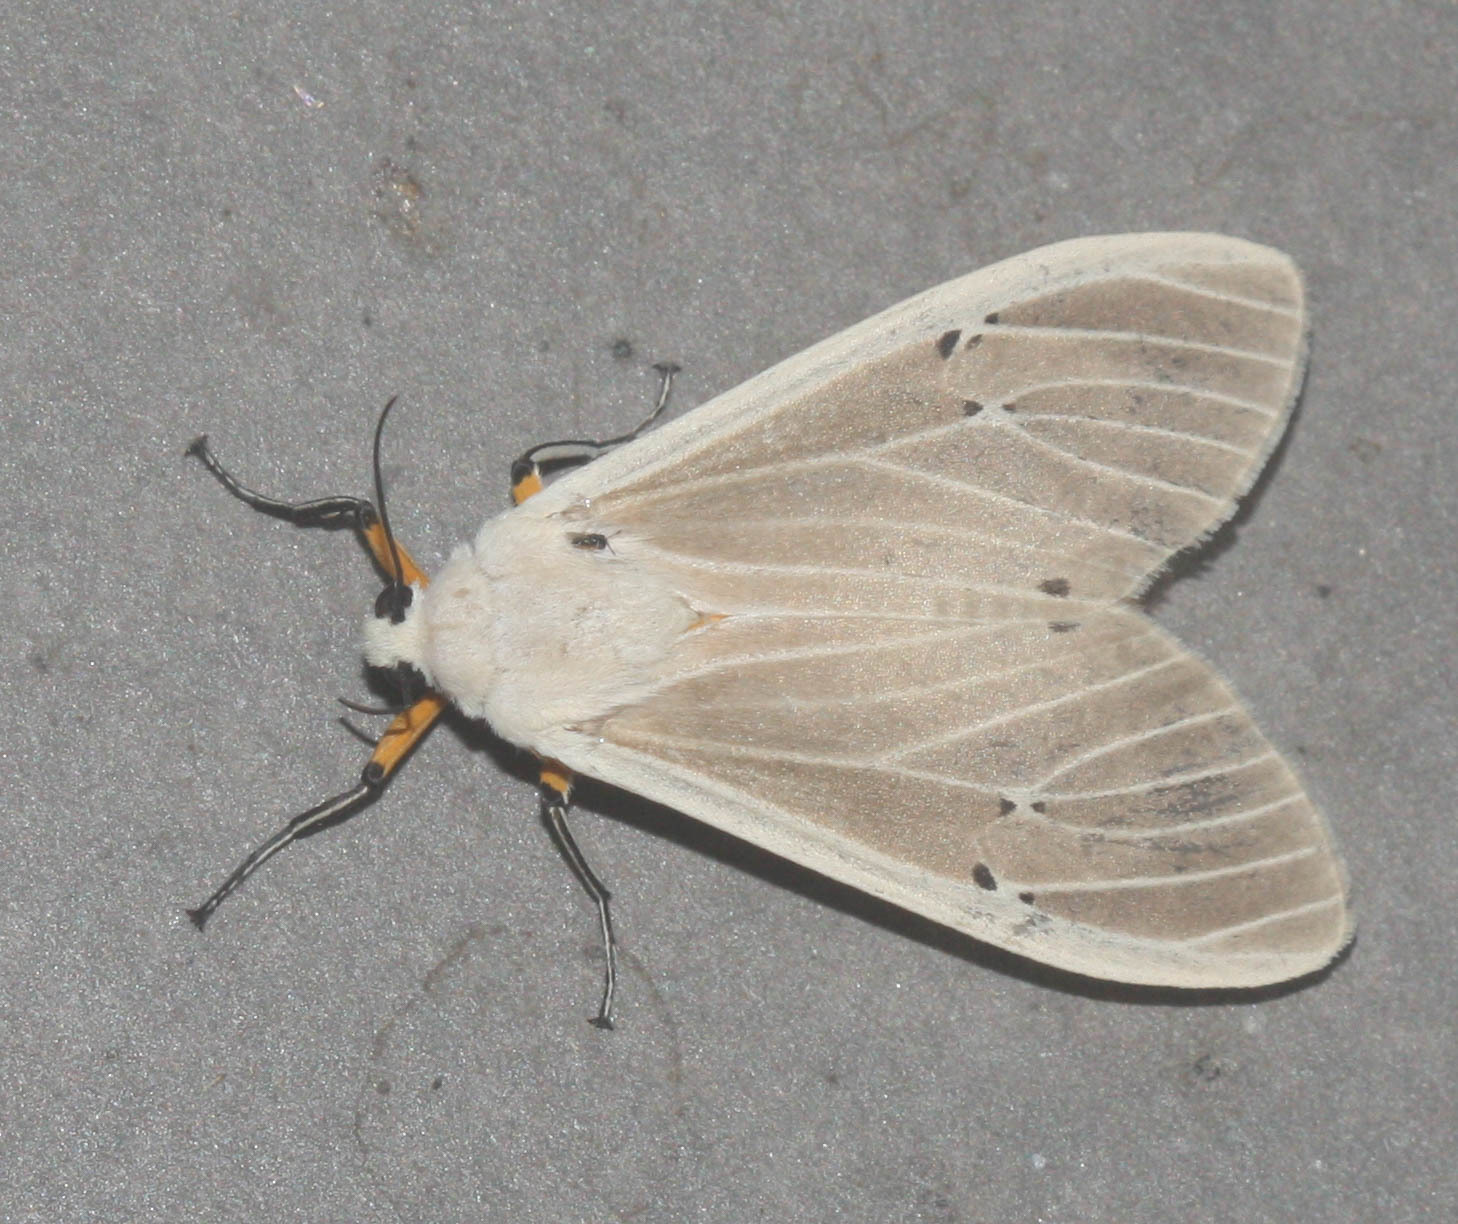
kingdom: Animalia
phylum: Arthropoda
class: Insecta
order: Lepidoptera
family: Erebidae
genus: Creatonotos
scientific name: Creatonotos transiens
